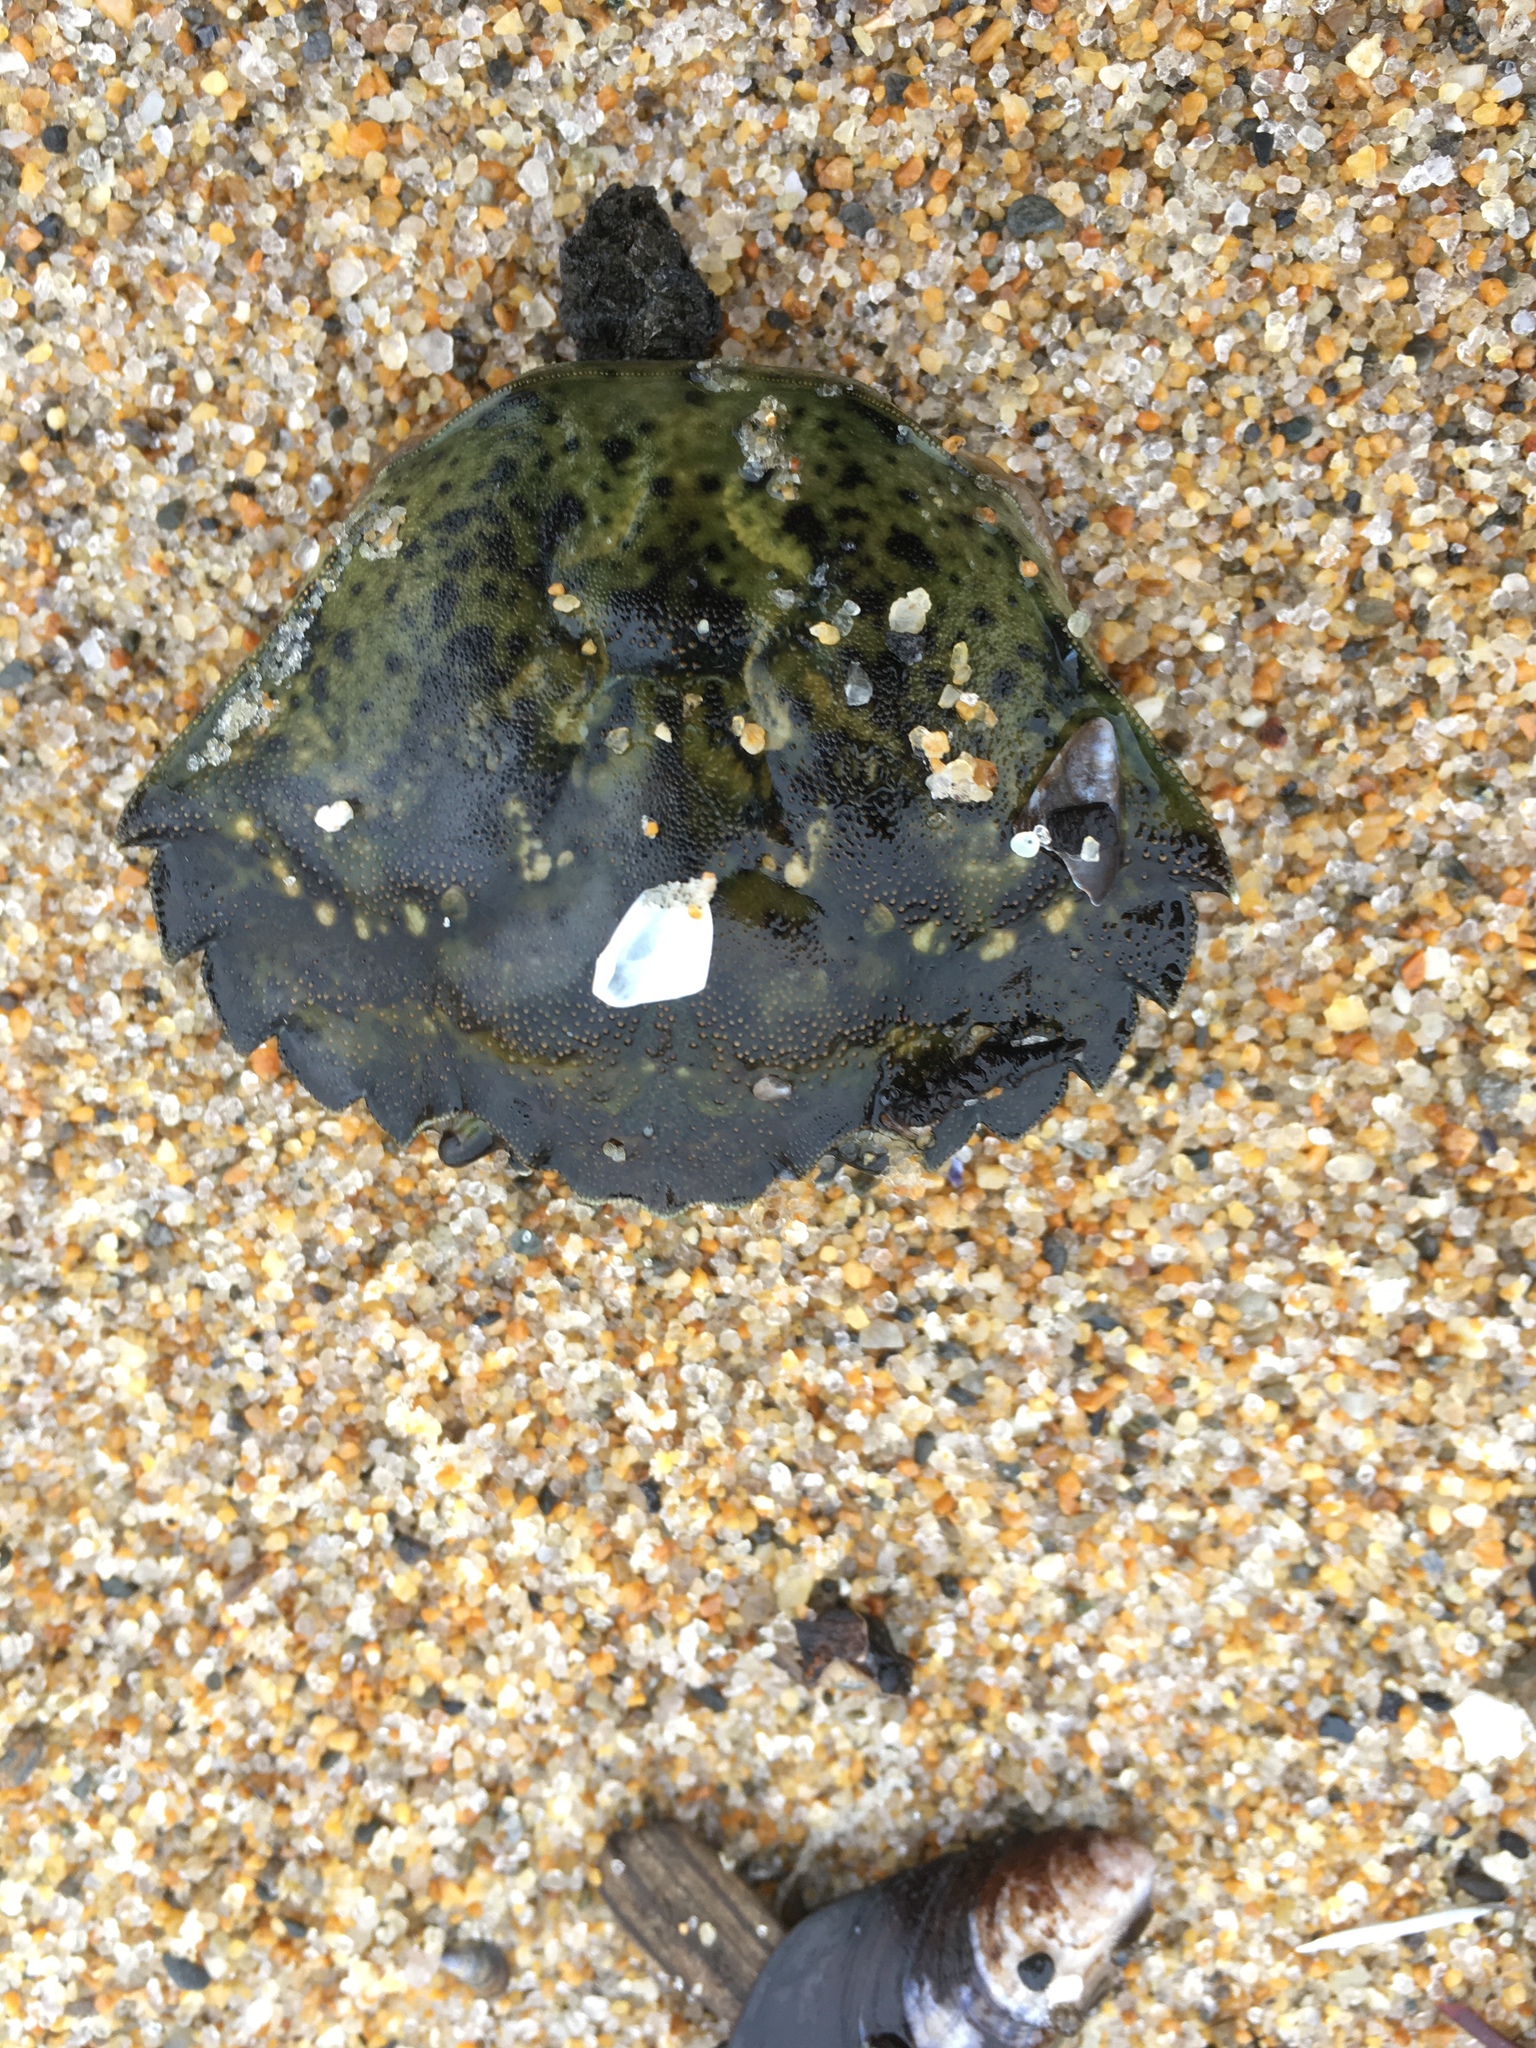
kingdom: Animalia
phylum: Arthropoda
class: Malacostraca
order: Decapoda
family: Carcinidae
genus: Carcinus
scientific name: Carcinus maenas
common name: European green crab
